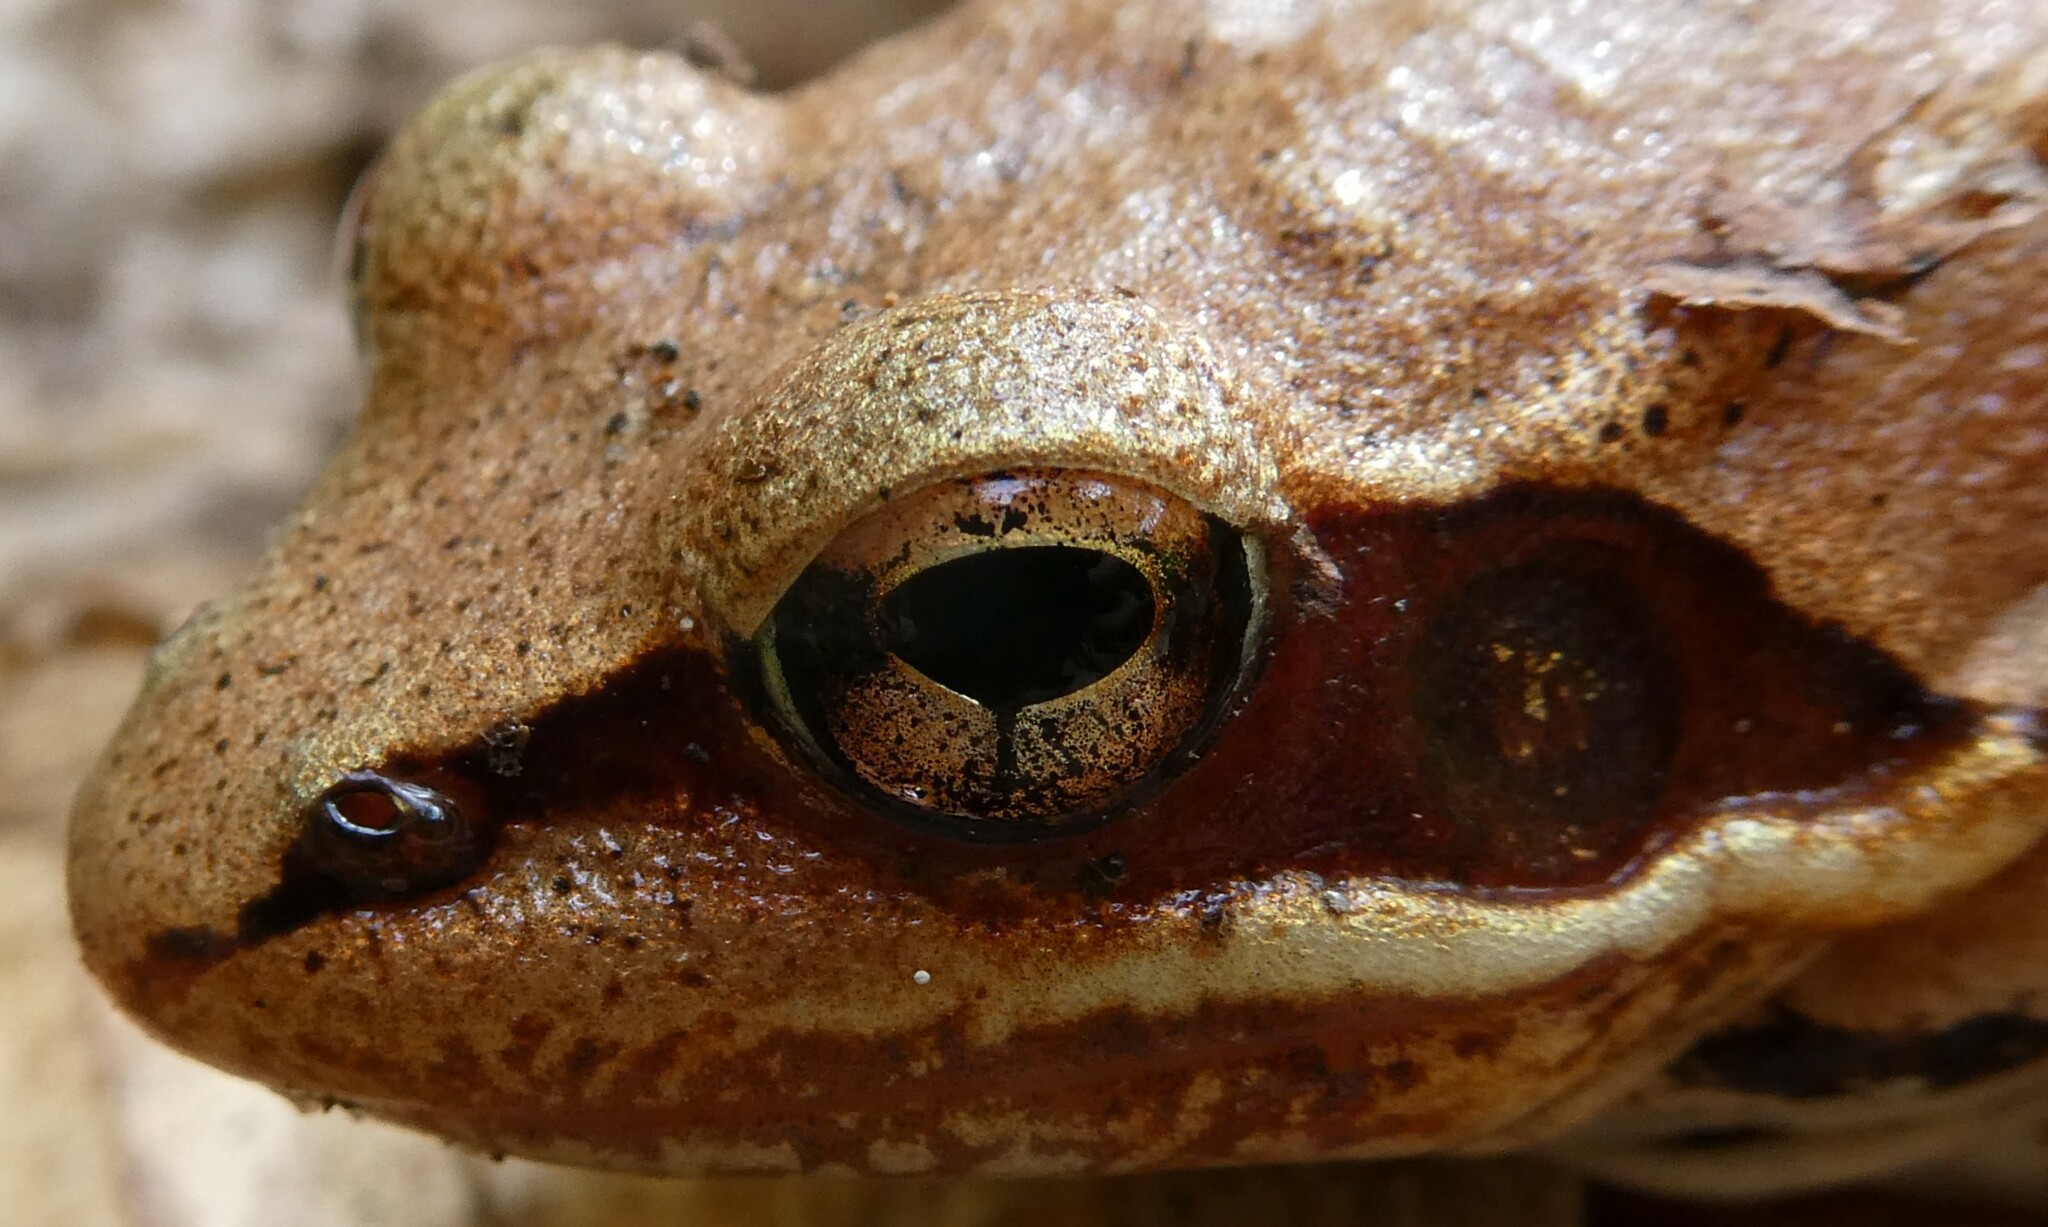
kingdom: Animalia
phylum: Chordata
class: Amphibia
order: Anura
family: Ranidae
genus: Lithobates
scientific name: Lithobates sylvaticus
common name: Wood frog
